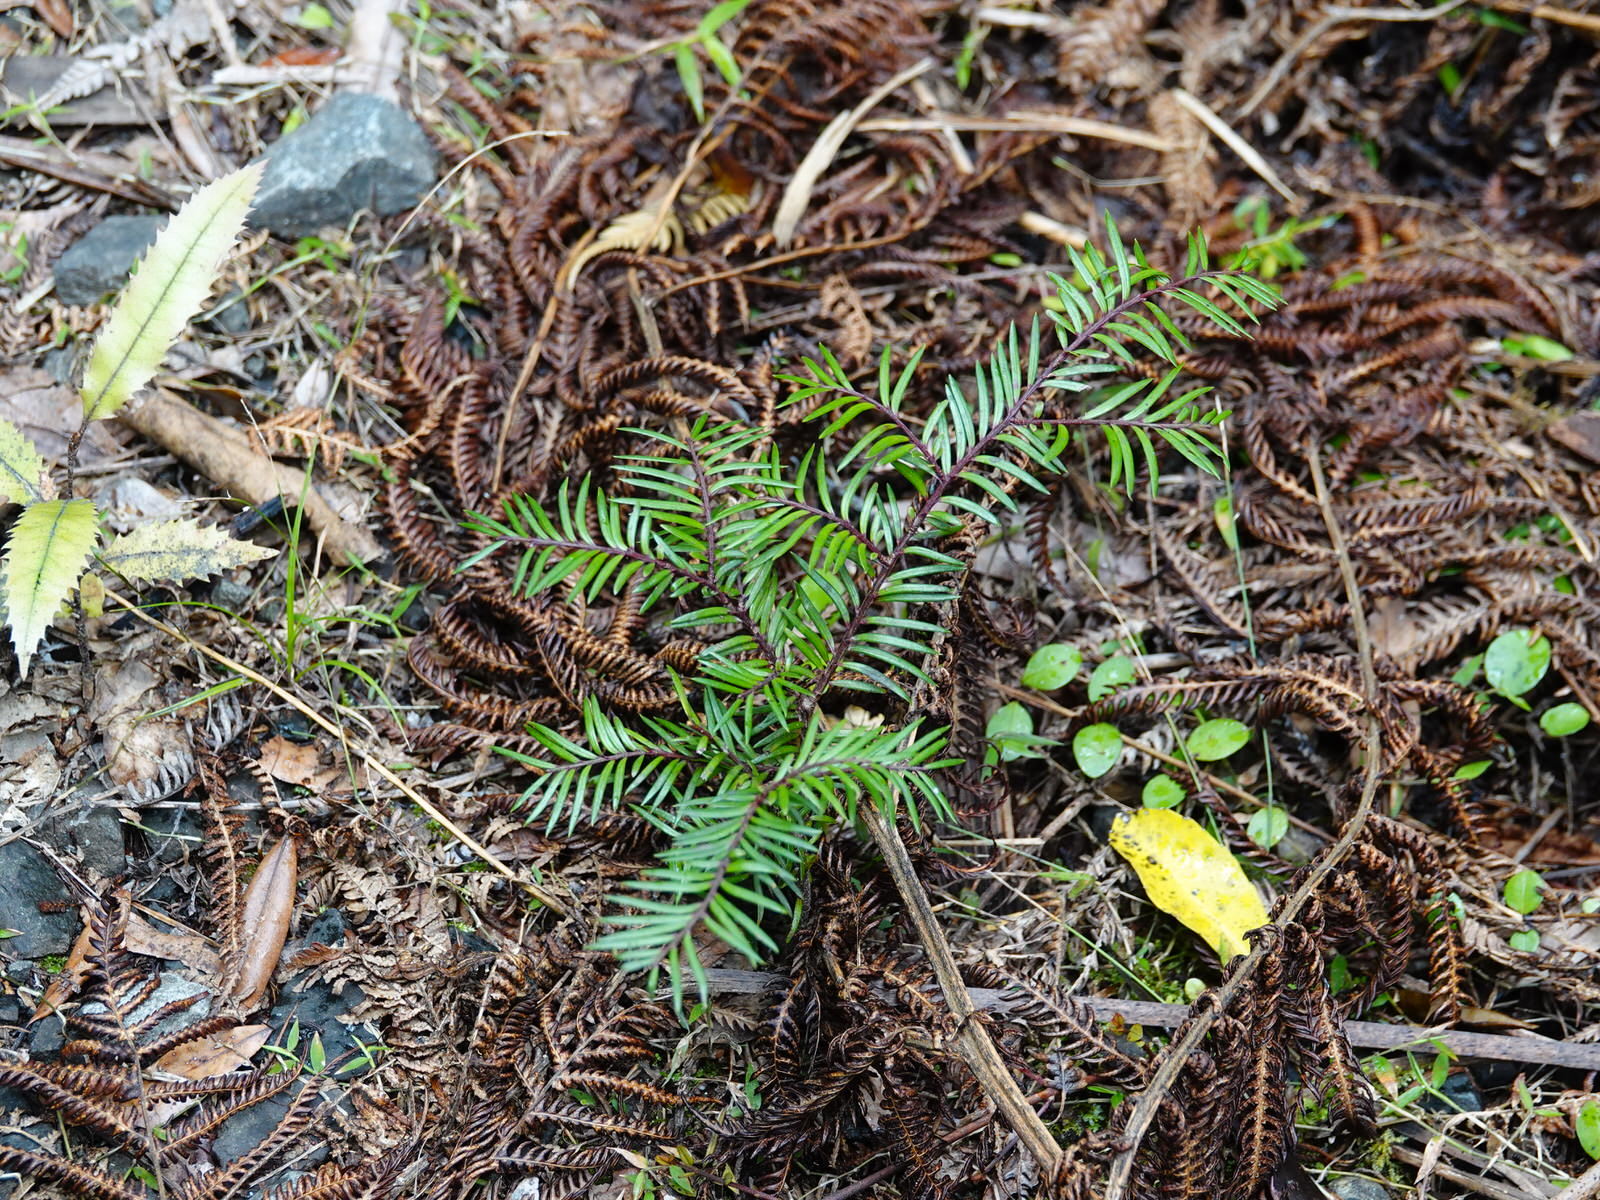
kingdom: Plantae
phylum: Tracheophyta
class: Pinopsida
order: Pinales
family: Podocarpaceae
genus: Prumnopitys
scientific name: Prumnopitys ferruginea
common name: Brown pine
